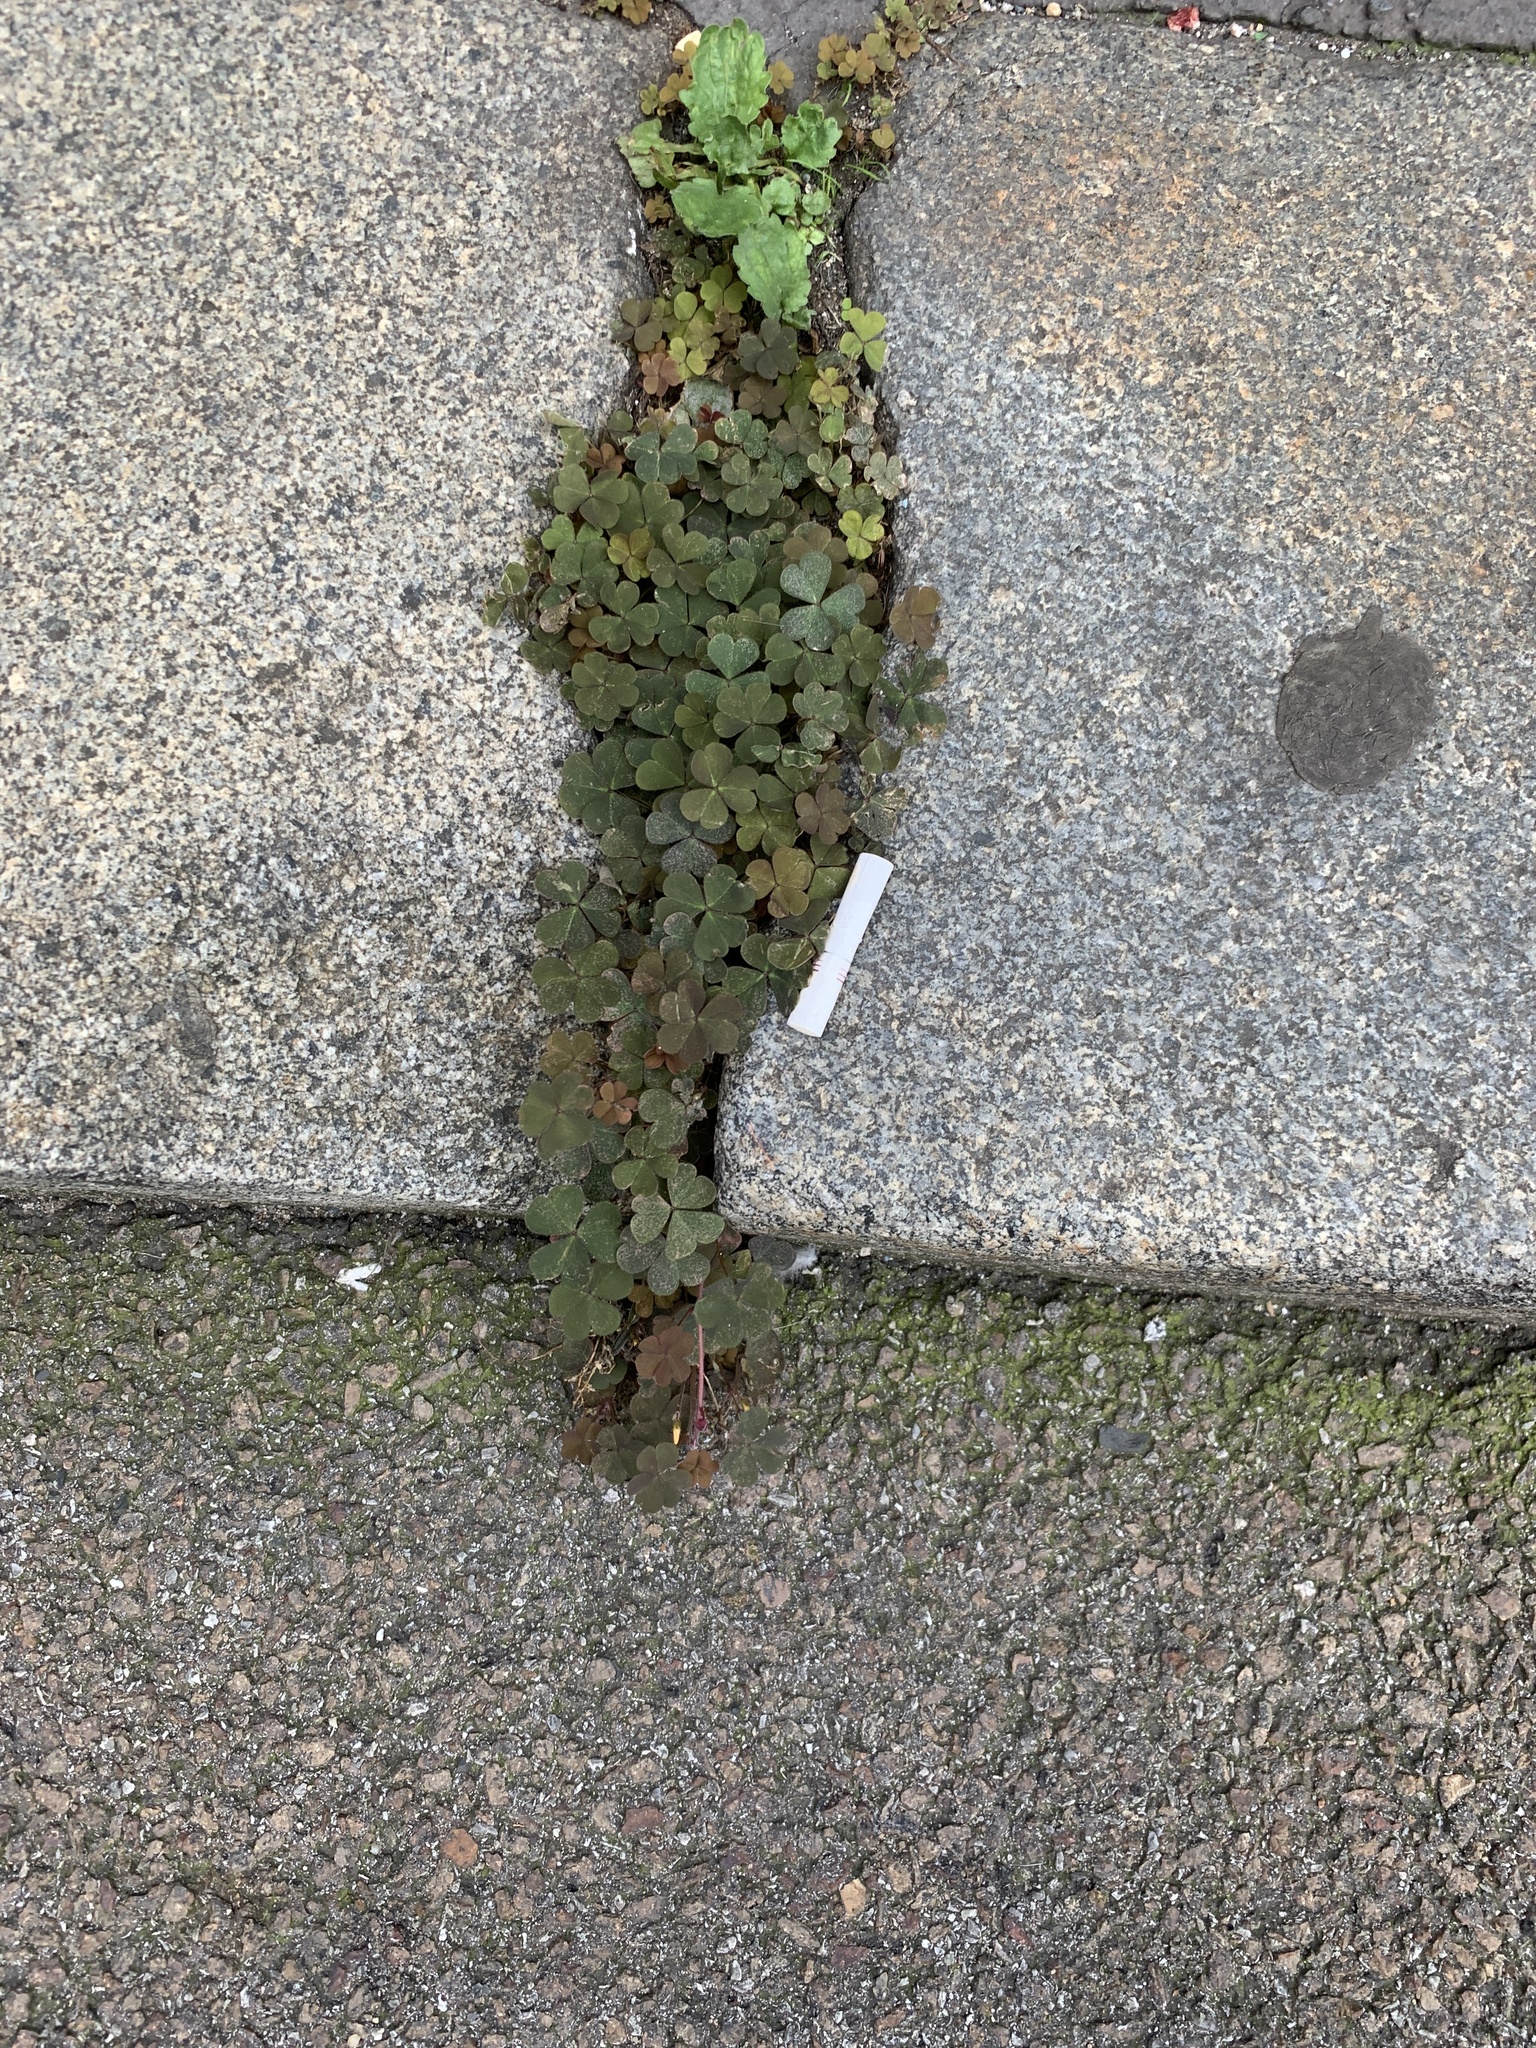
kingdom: Plantae
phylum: Tracheophyta
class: Magnoliopsida
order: Oxalidales
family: Oxalidaceae
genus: Oxalis
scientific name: Oxalis corniculata
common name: Procumbent yellow-sorrel
